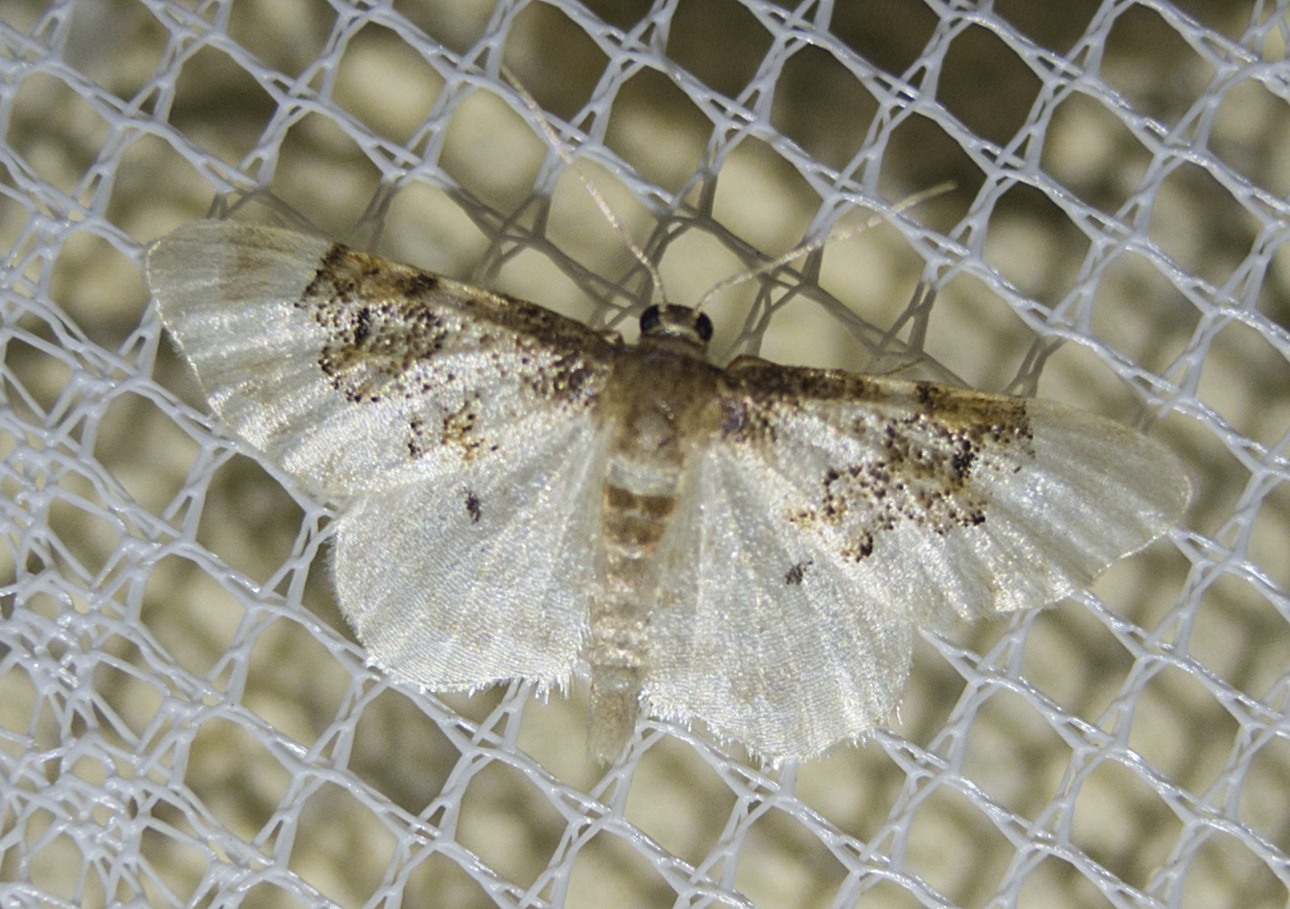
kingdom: Animalia
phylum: Arthropoda
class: Insecta
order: Lepidoptera
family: Geometridae
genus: Idaea
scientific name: Idaea rusticata
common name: Least carpet
